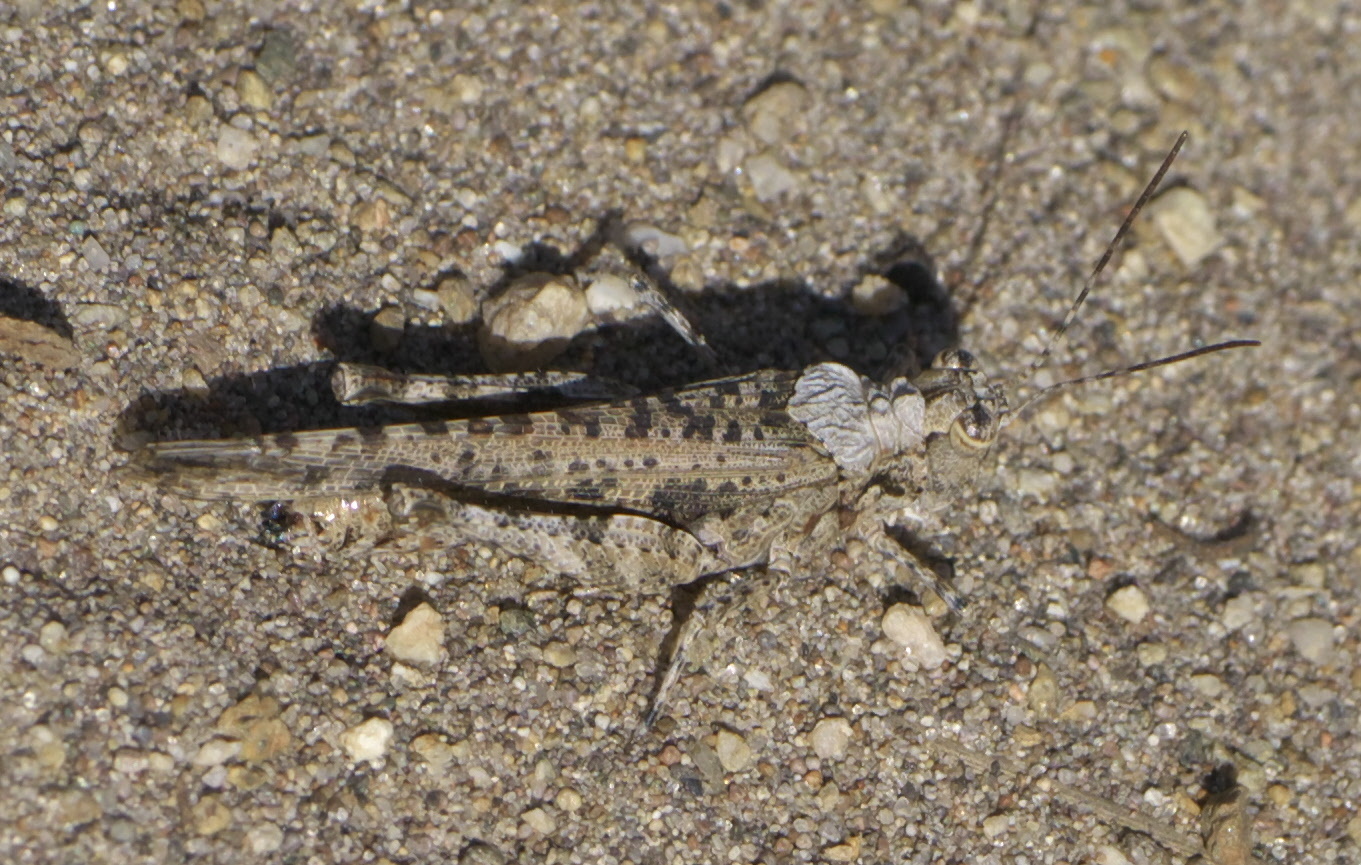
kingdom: Animalia
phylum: Arthropoda
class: Insecta
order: Orthoptera
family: Acrididae
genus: Derotmema
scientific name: Derotmema haydenii
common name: Hayden's grasshopper
